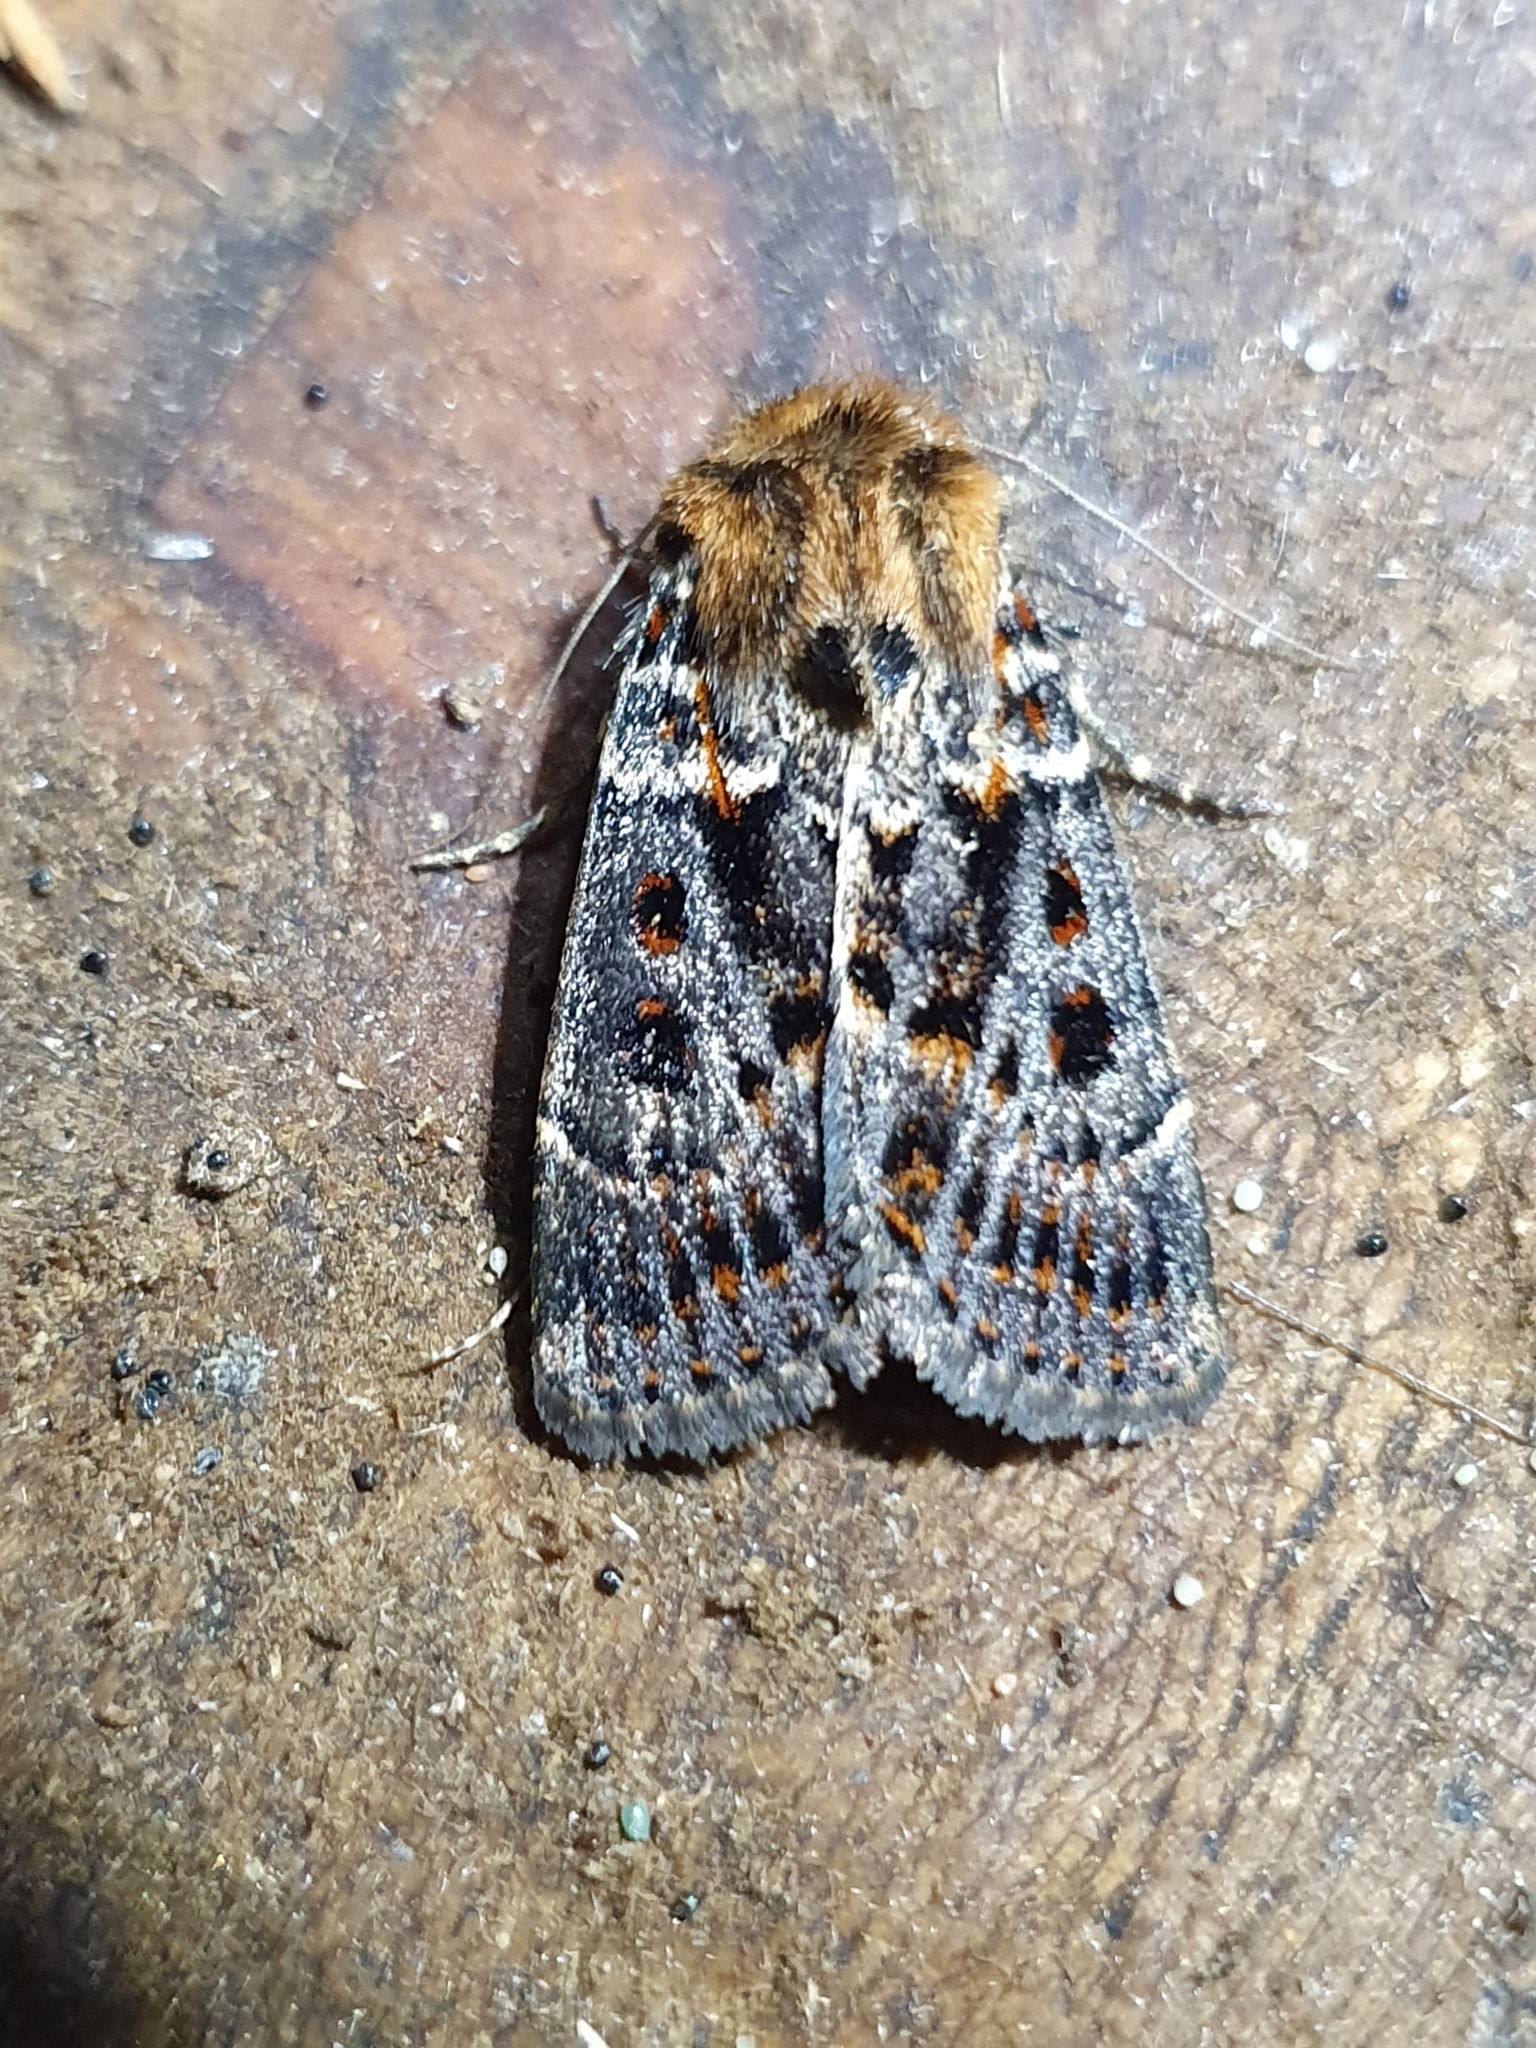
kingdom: Animalia
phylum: Arthropoda
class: Insecta
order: Lepidoptera
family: Noctuidae
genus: Proteuxoa
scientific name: Proteuxoa sanguinipuncta
